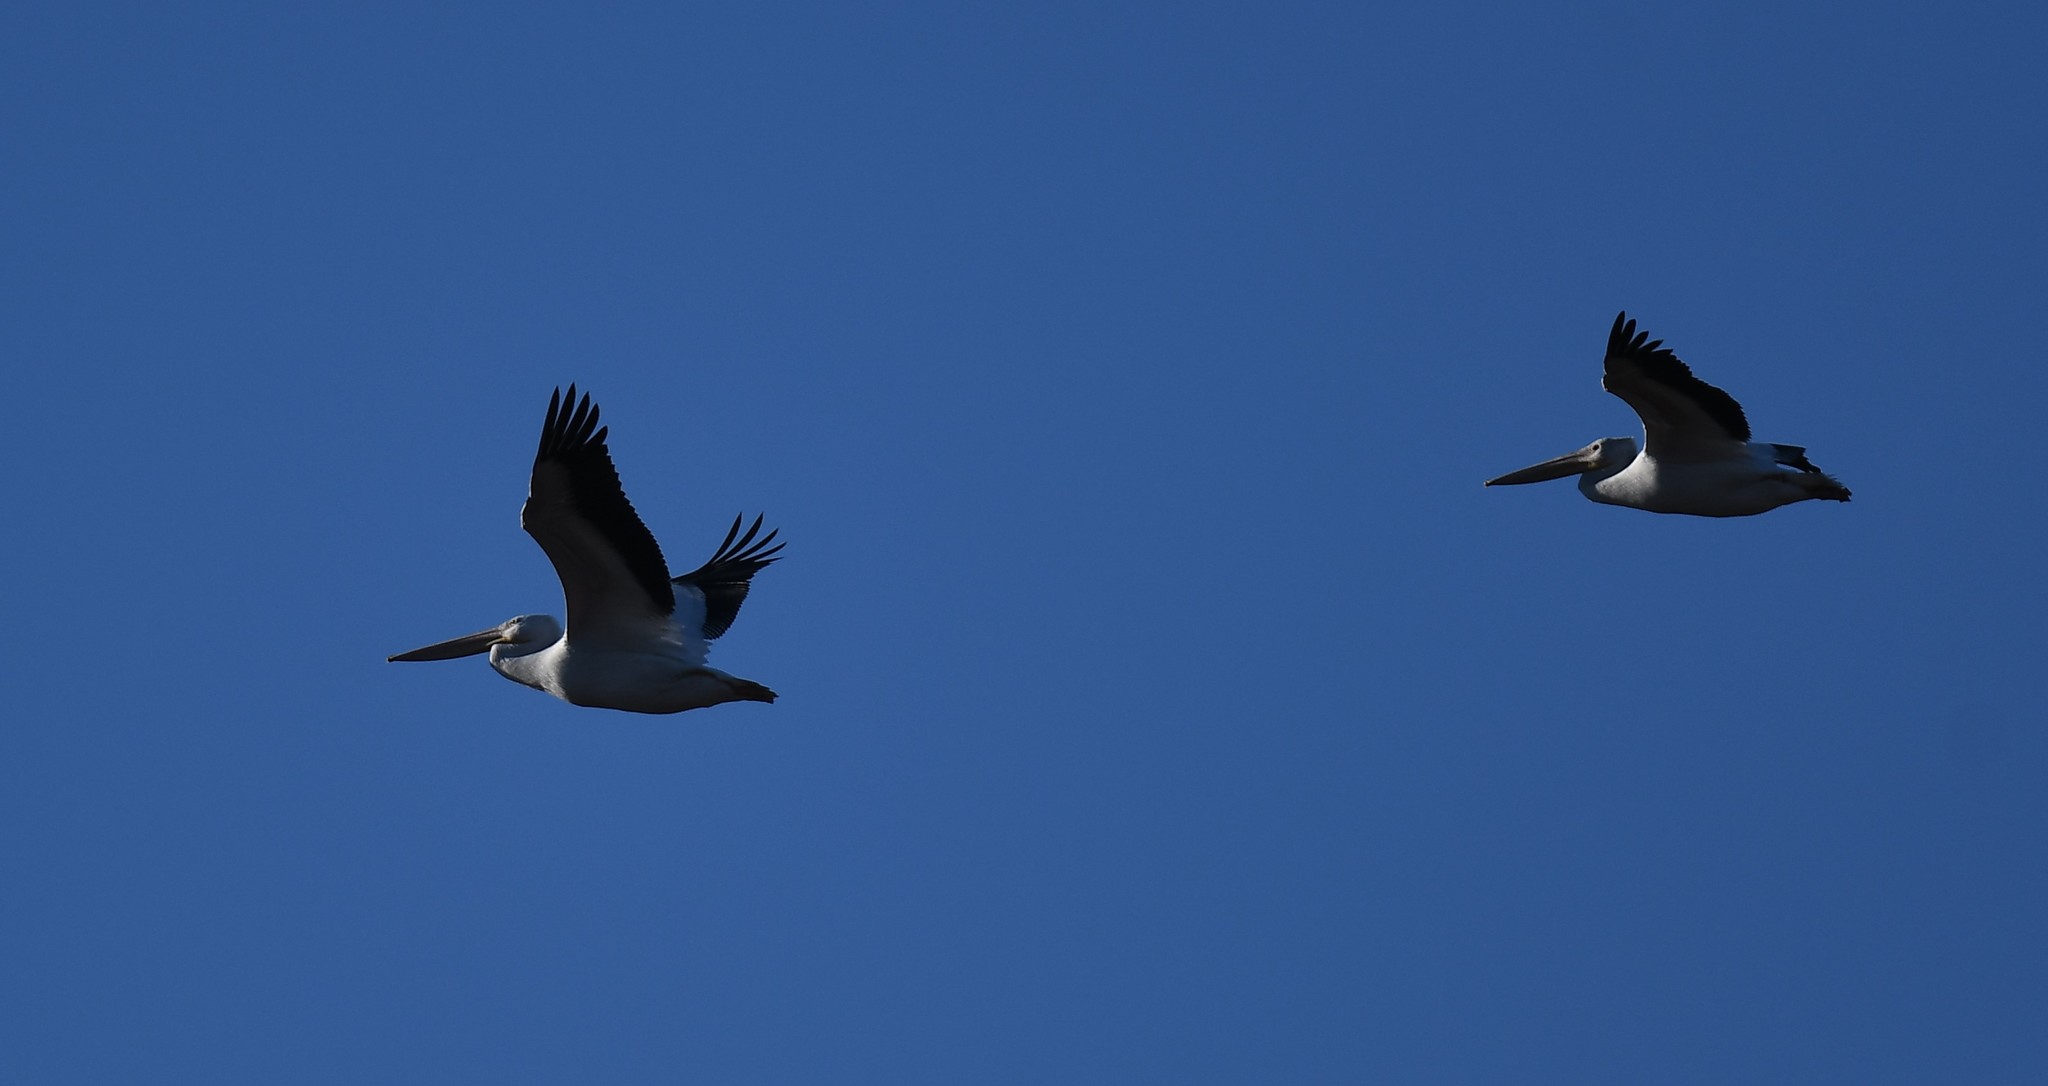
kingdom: Animalia
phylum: Chordata
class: Aves
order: Pelecaniformes
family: Pelecanidae
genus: Pelecanus
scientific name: Pelecanus erythrorhynchos
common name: American white pelican
